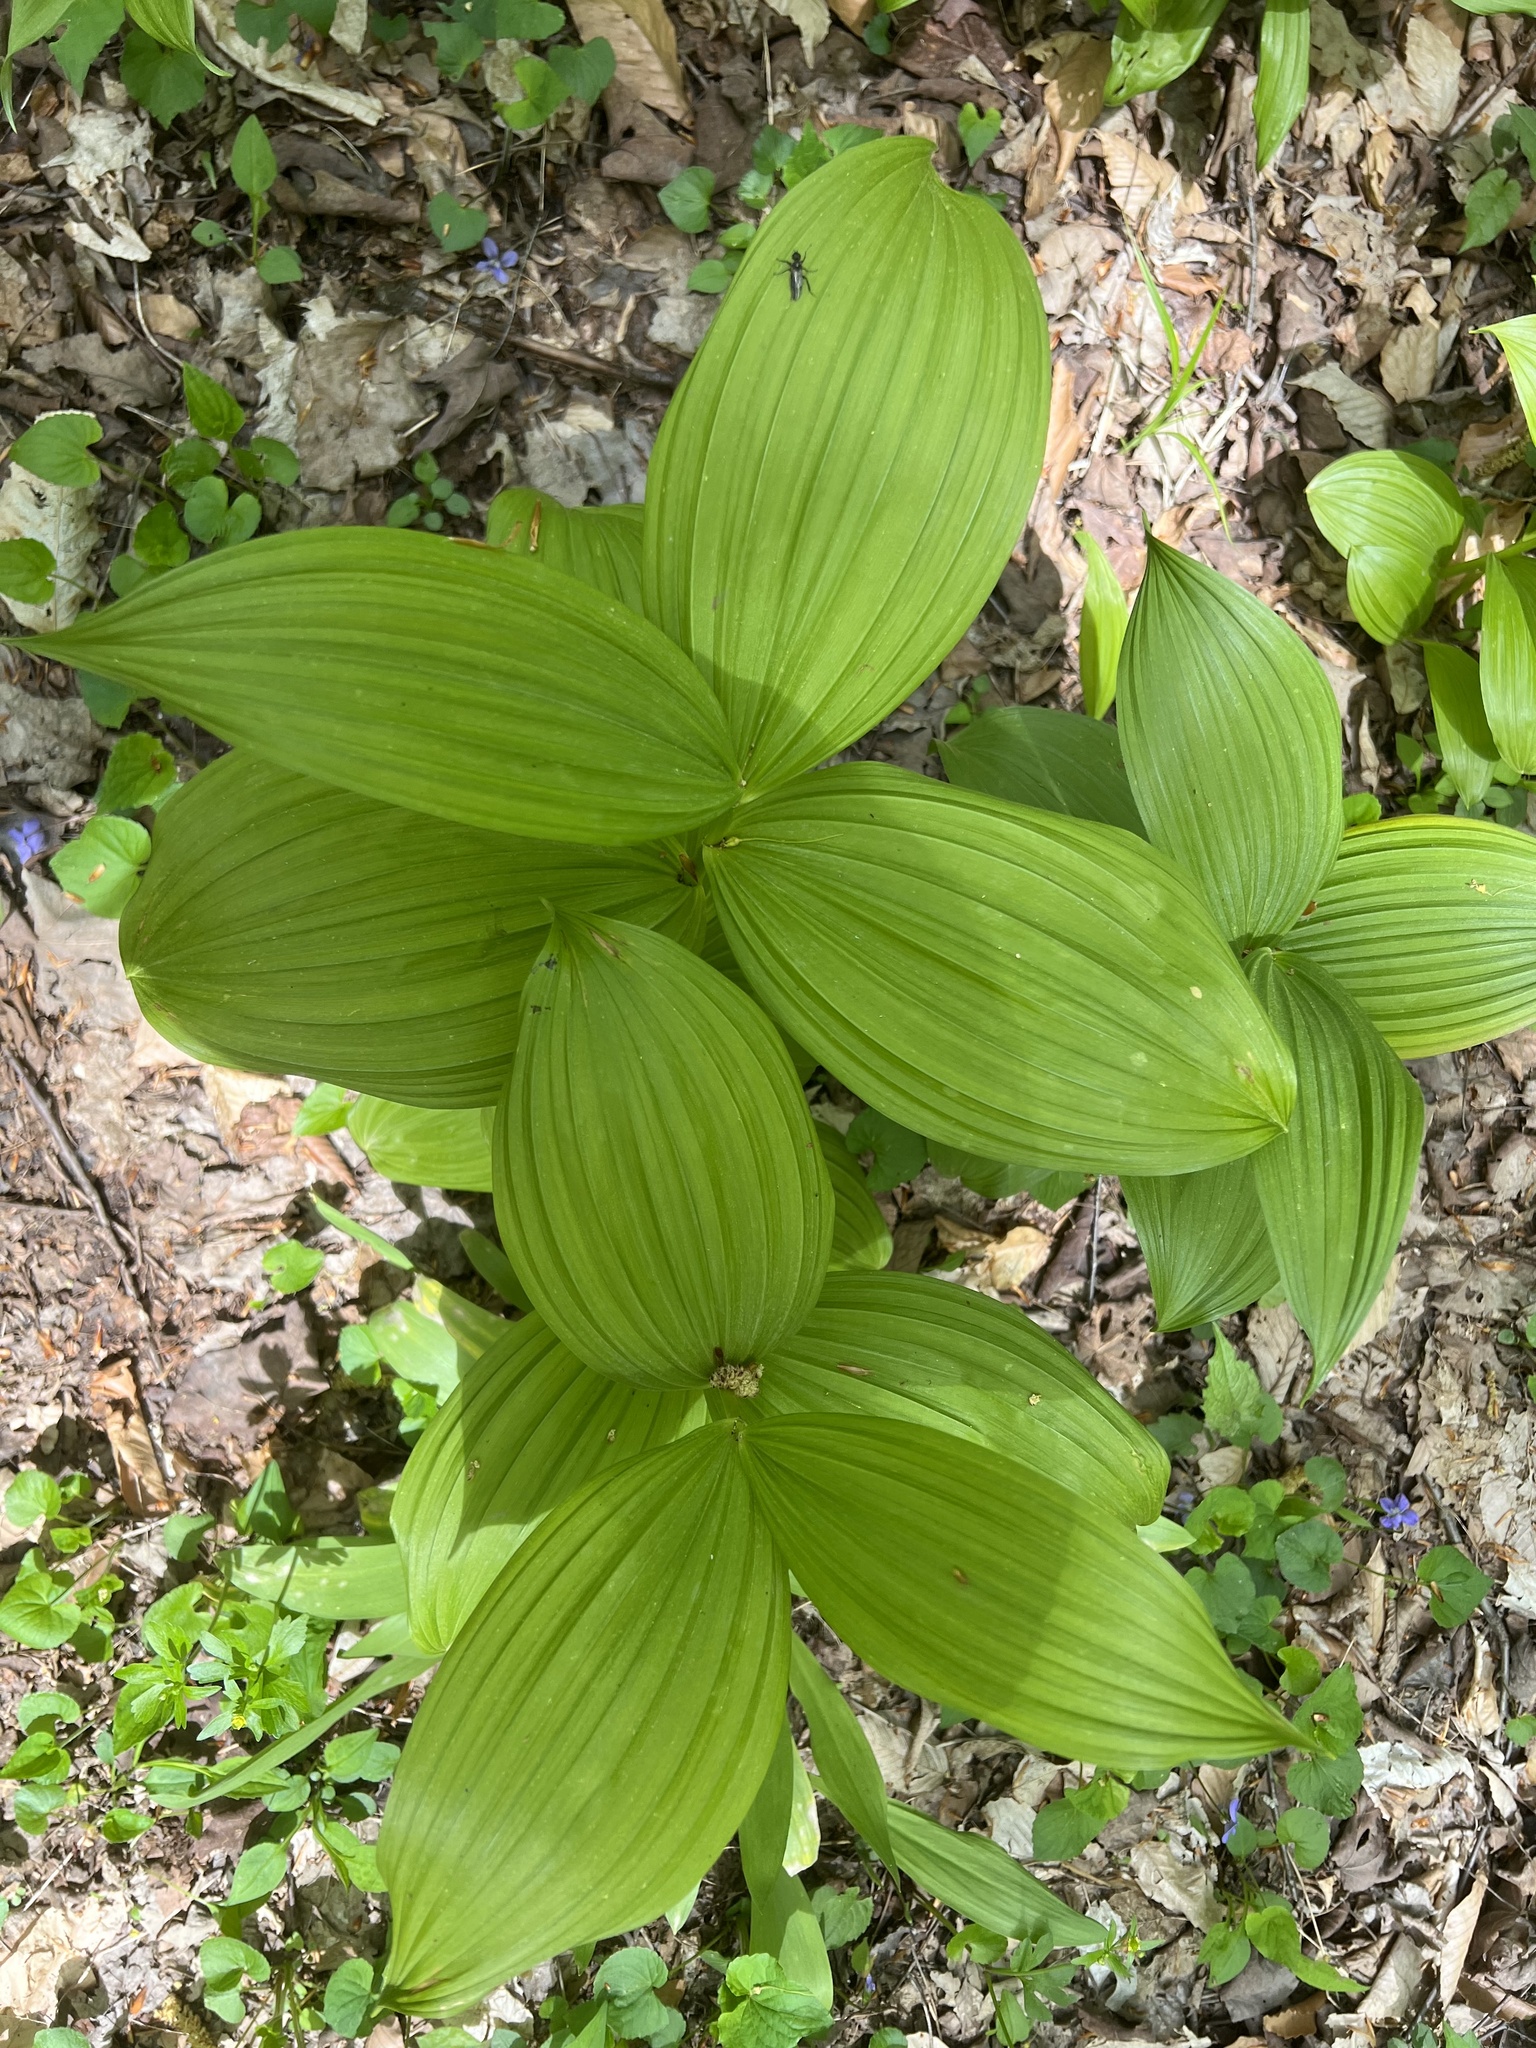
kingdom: Plantae
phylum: Tracheophyta
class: Liliopsida
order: Liliales
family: Melanthiaceae
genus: Veratrum
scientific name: Veratrum viride
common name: American false hellebore
